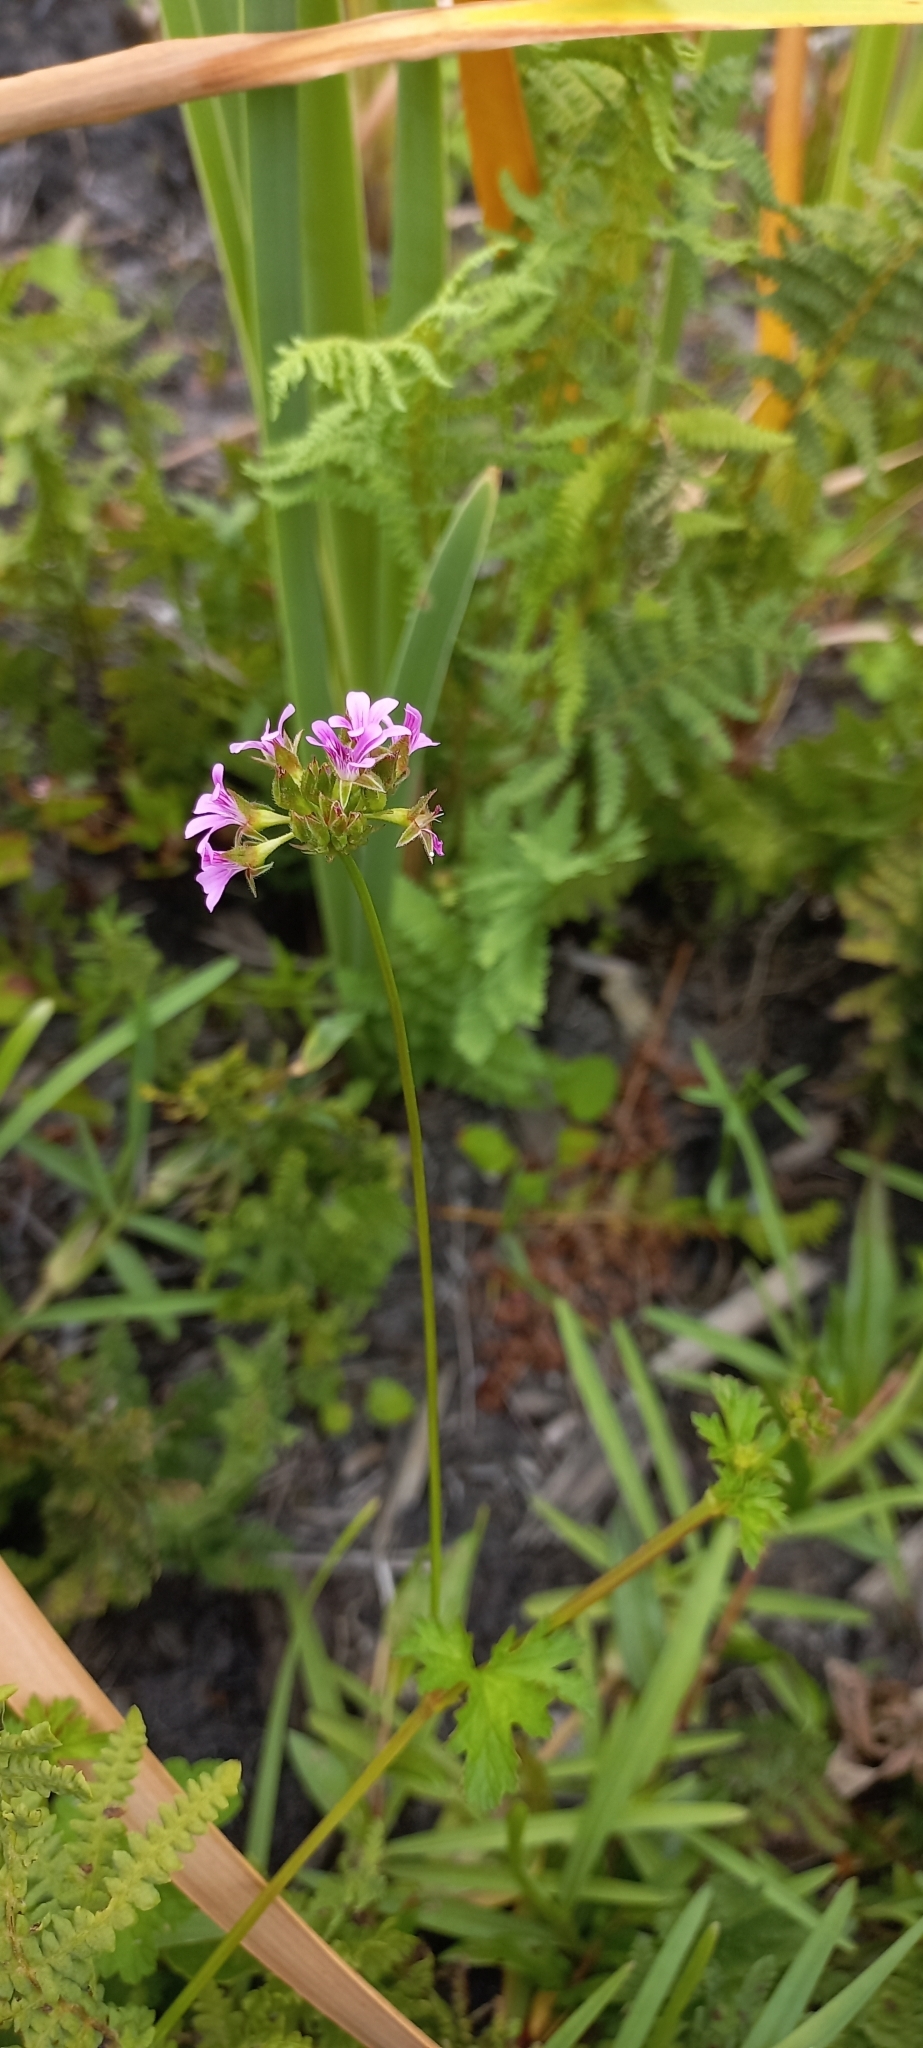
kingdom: Plantae
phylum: Tracheophyta
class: Magnoliopsida
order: Geraniales
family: Geraniaceae
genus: Pelargonium
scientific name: Pelargonium grossularioides
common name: Gooseberry geranium
